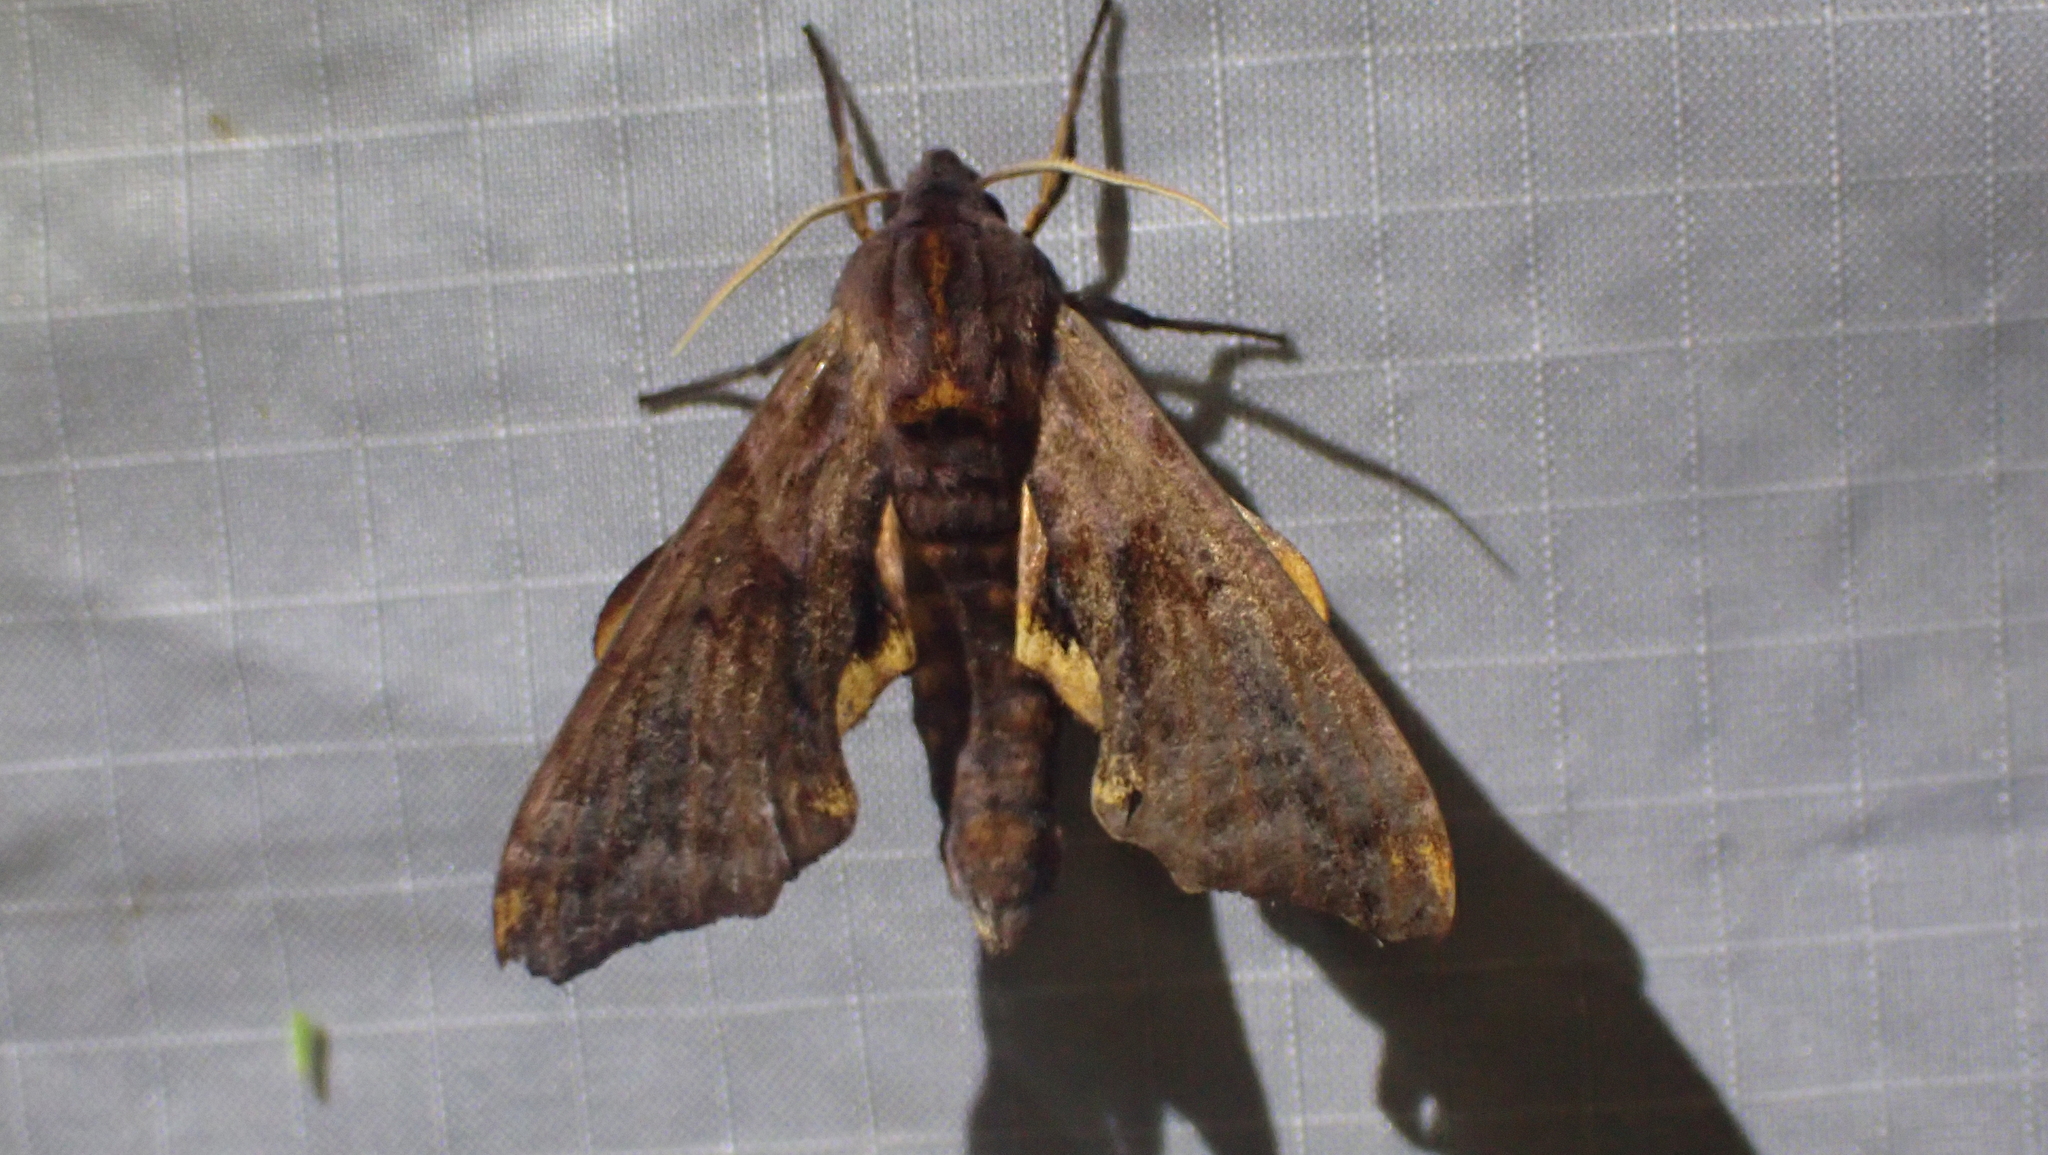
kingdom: Animalia
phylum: Arthropoda
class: Insecta
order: Lepidoptera
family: Sphingidae
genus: Paonias
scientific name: Paonias myops
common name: Small-eyed sphinx
